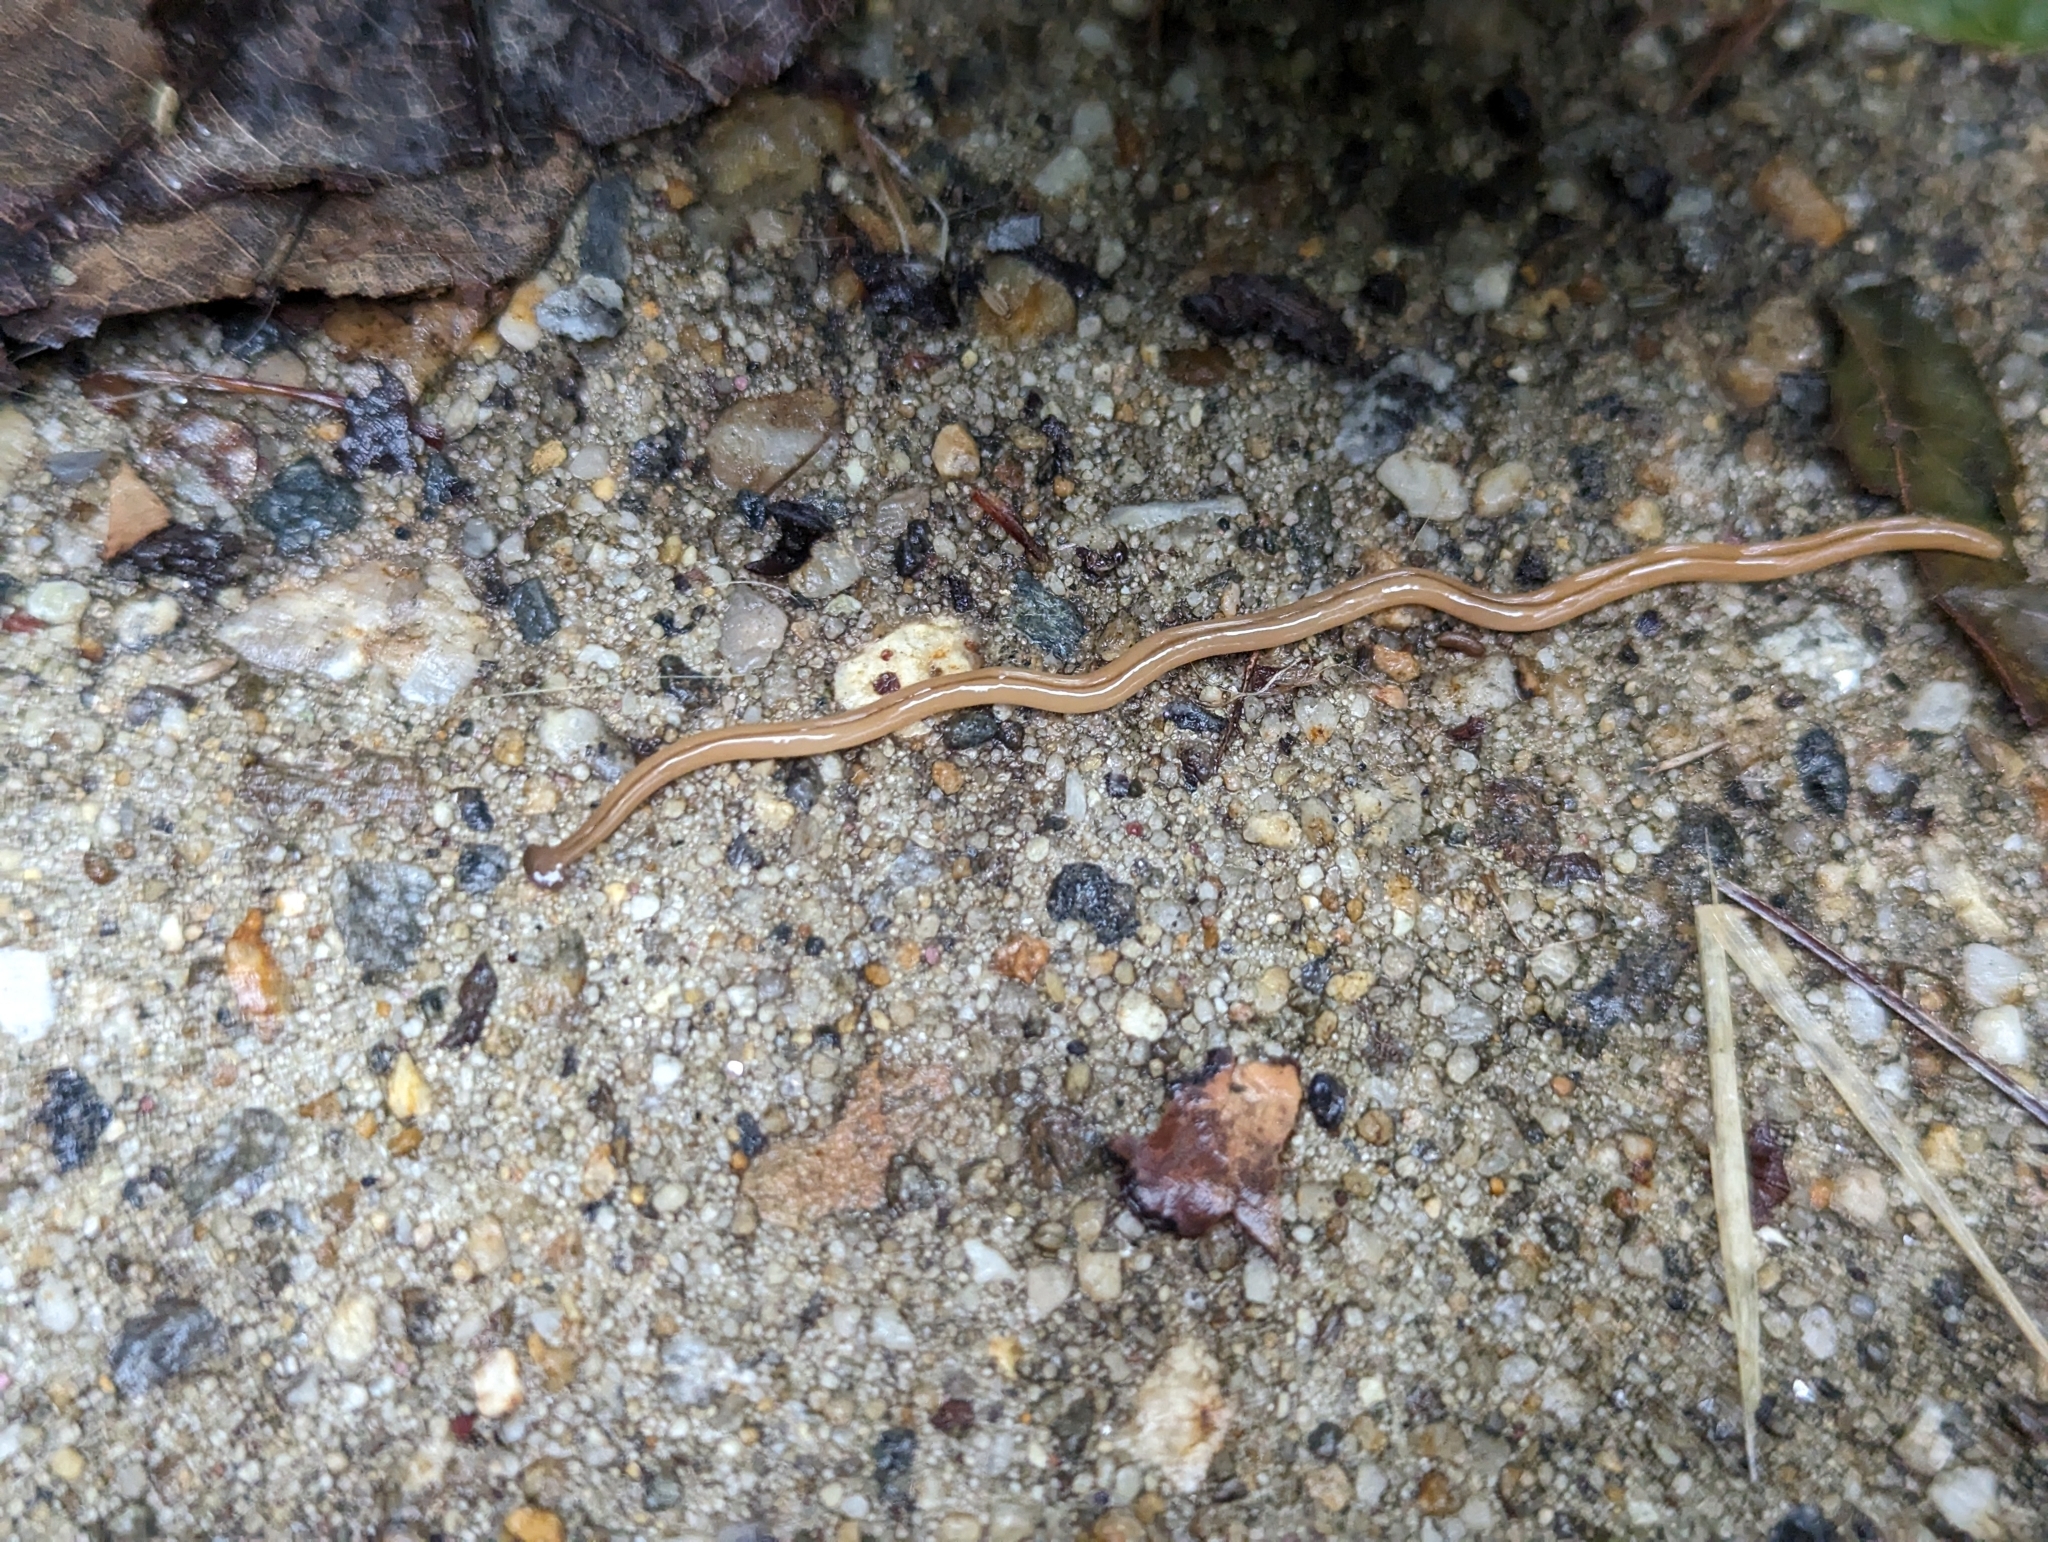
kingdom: Animalia
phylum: Platyhelminthes
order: Tricladida
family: Geoplanidae
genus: Bipalium
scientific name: Bipalium adventitium
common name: Land planarian
